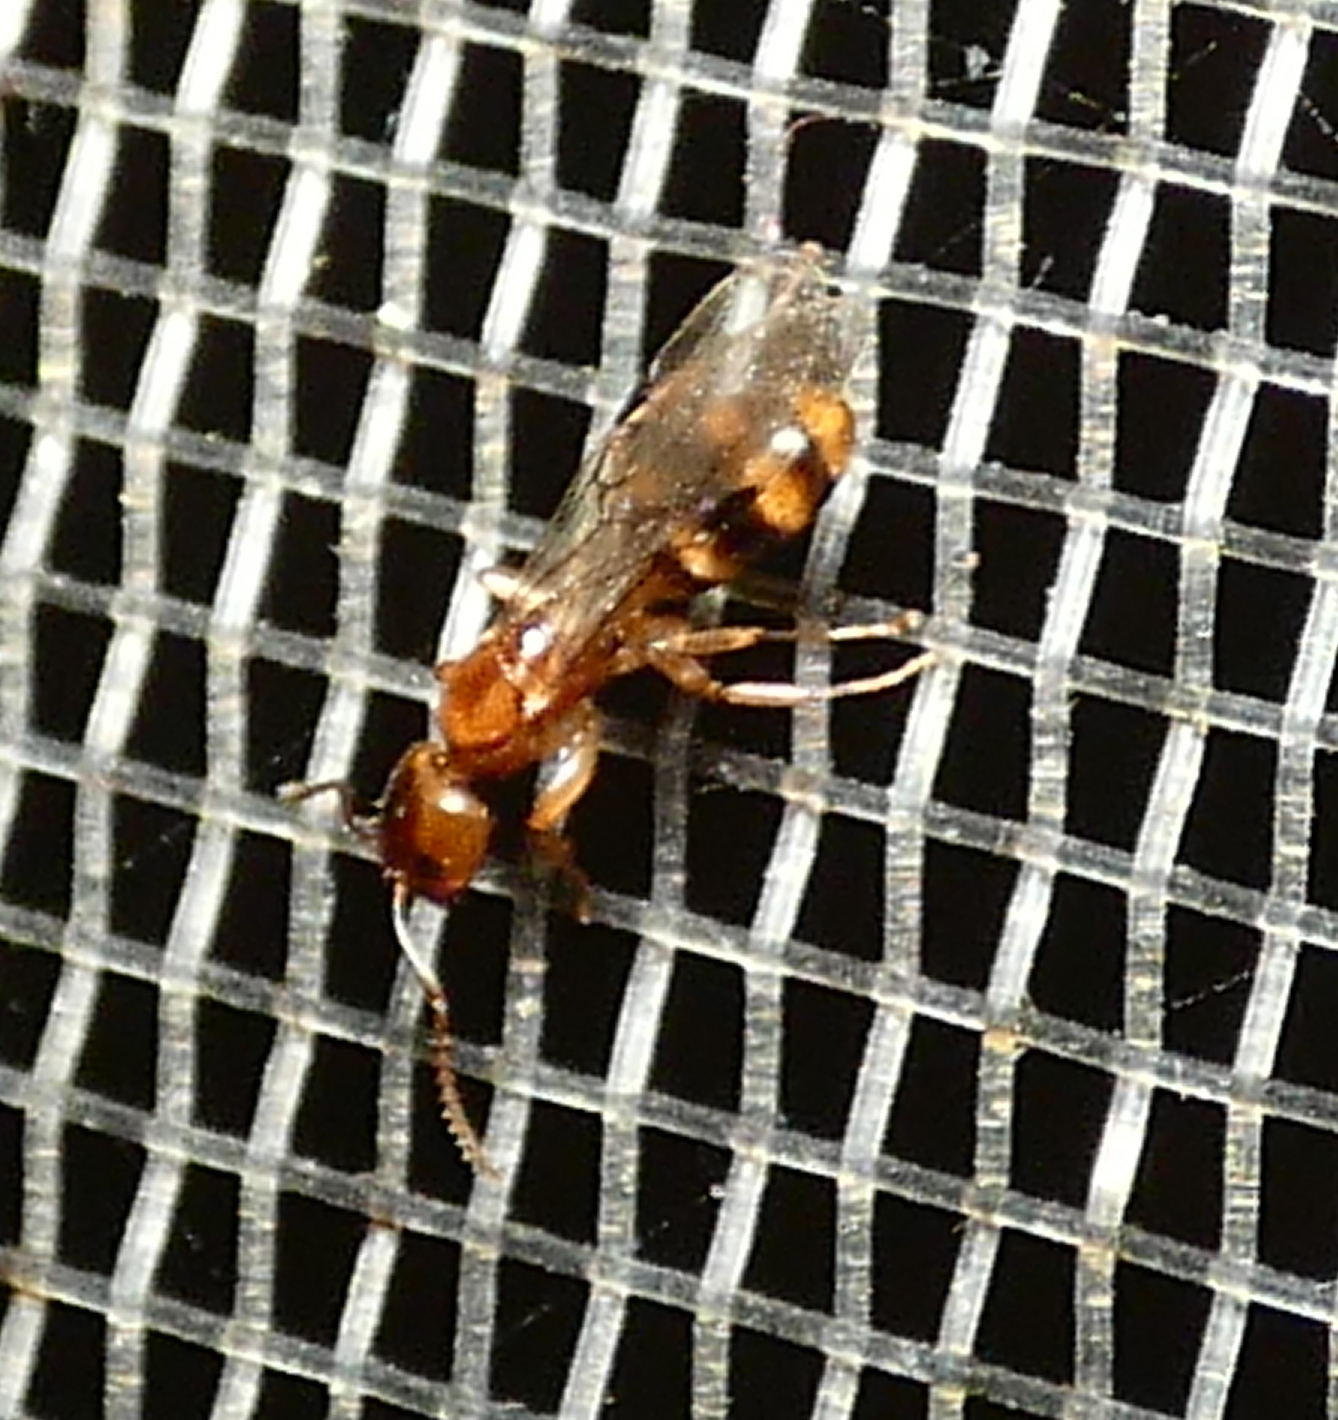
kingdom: Animalia
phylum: Arthropoda
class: Insecta
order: Hymenoptera
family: Formicidae
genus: Dolichoderus
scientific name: Dolichoderus lutosus
